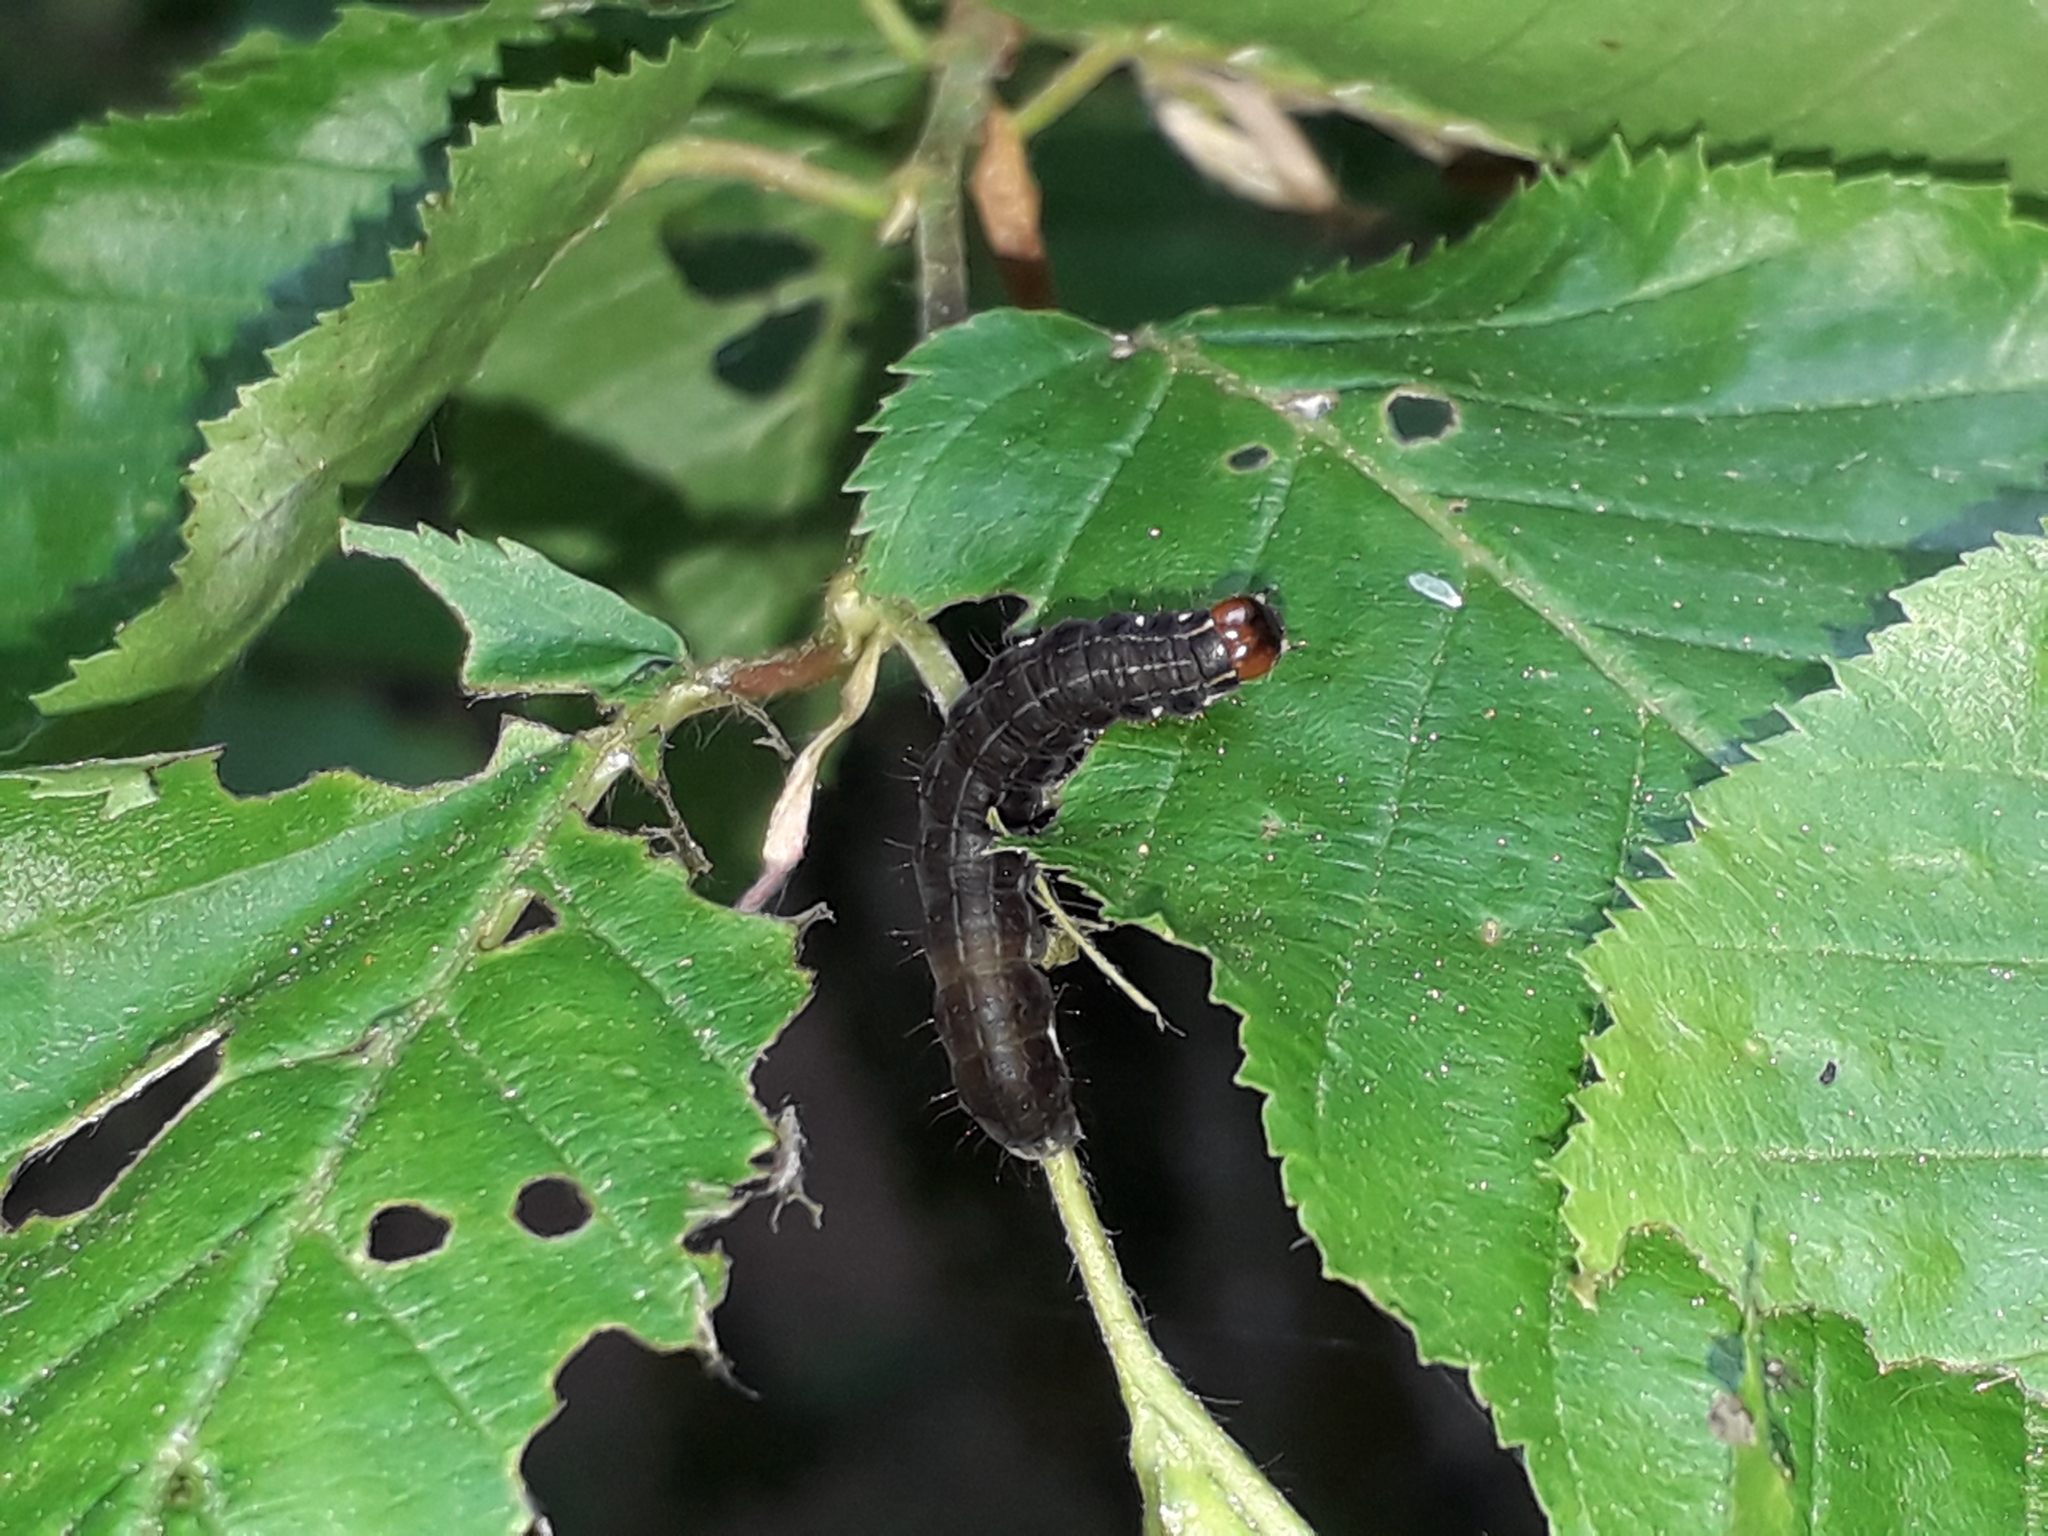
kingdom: Animalia
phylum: Arthropoda
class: Insecta
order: Lepidoptera
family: Noctuidae
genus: Eupsilia
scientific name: Eupsilia transversa
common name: Satellite
